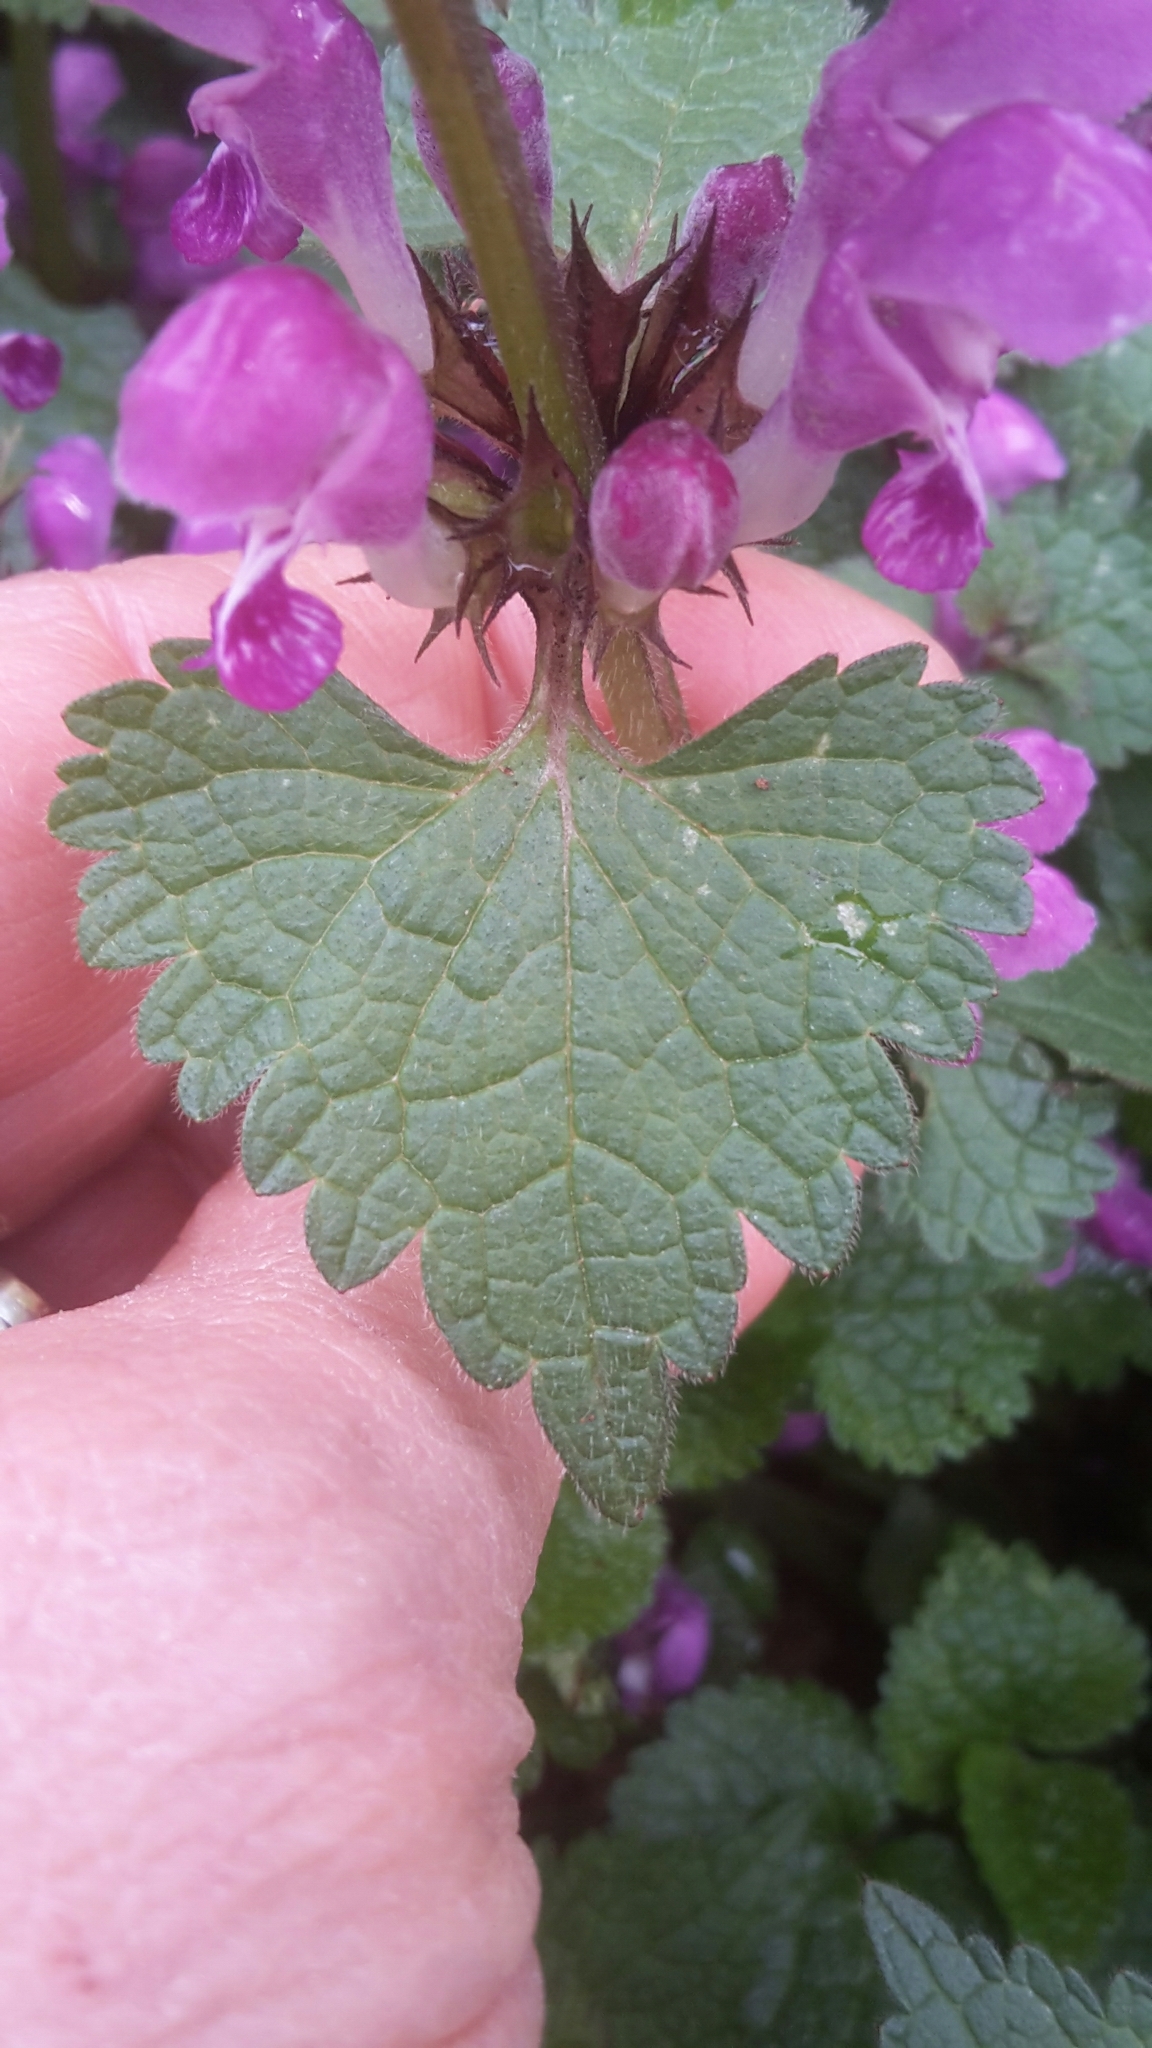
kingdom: Plantae
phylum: Tracheophyta
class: Magnoliopsida
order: Lamiales
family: Lamiaceae
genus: Lamium
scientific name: Lamium maculatum
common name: Spotted dead-nettle
